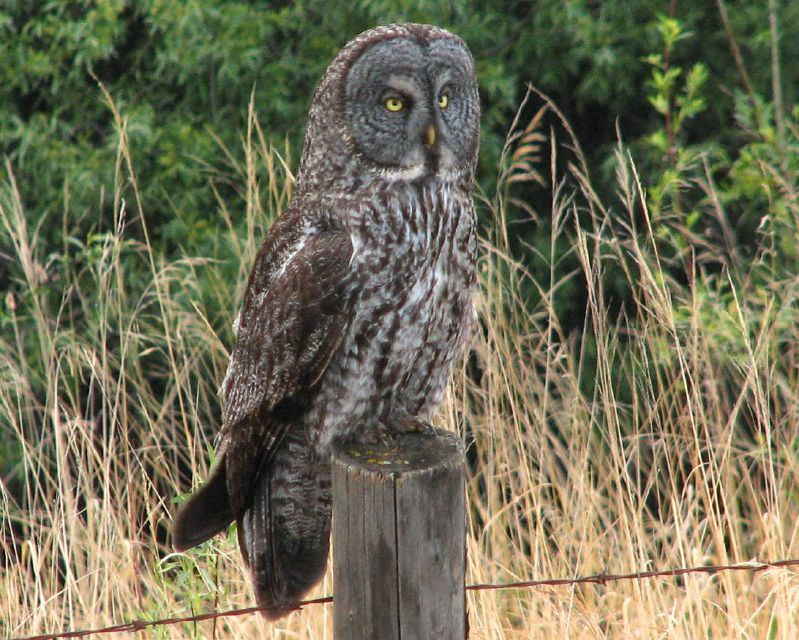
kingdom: Animalia
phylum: Chordata
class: Aves
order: Strigiformes
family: Strigidae
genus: Strix
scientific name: Strix nebulosa
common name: Great grey owl
